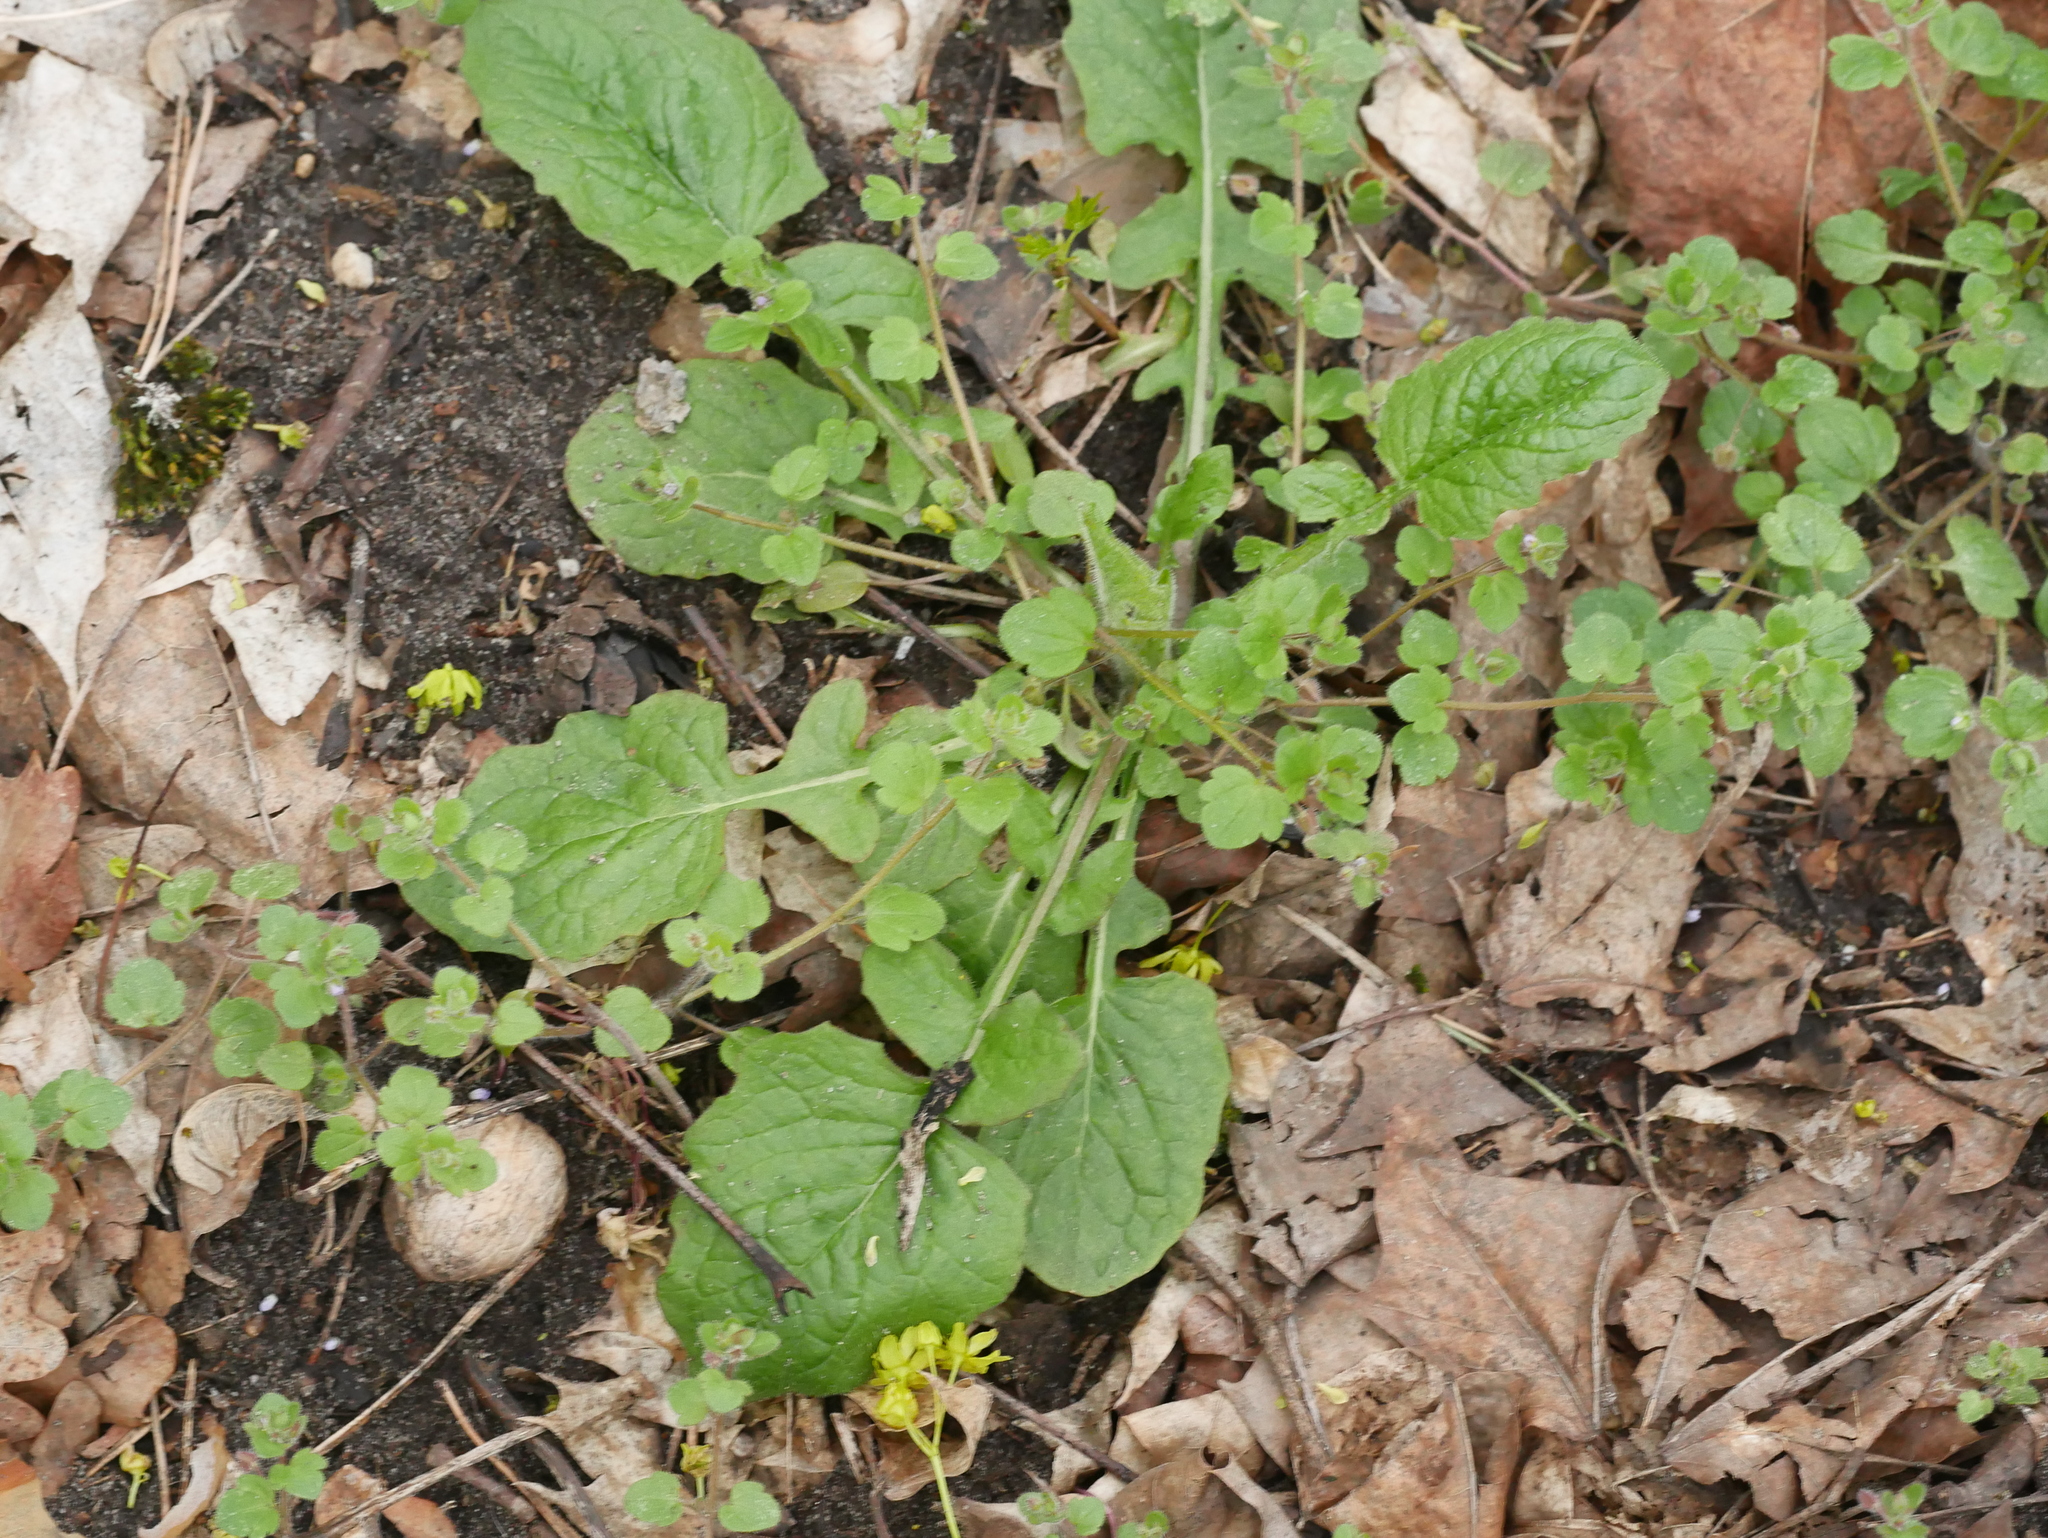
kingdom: Plantae
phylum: Tracheophyta
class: Magnoliopsida
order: Asterales
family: Asteraceae
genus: Lapsana
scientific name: Lapsana communis
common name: Nipplewort
